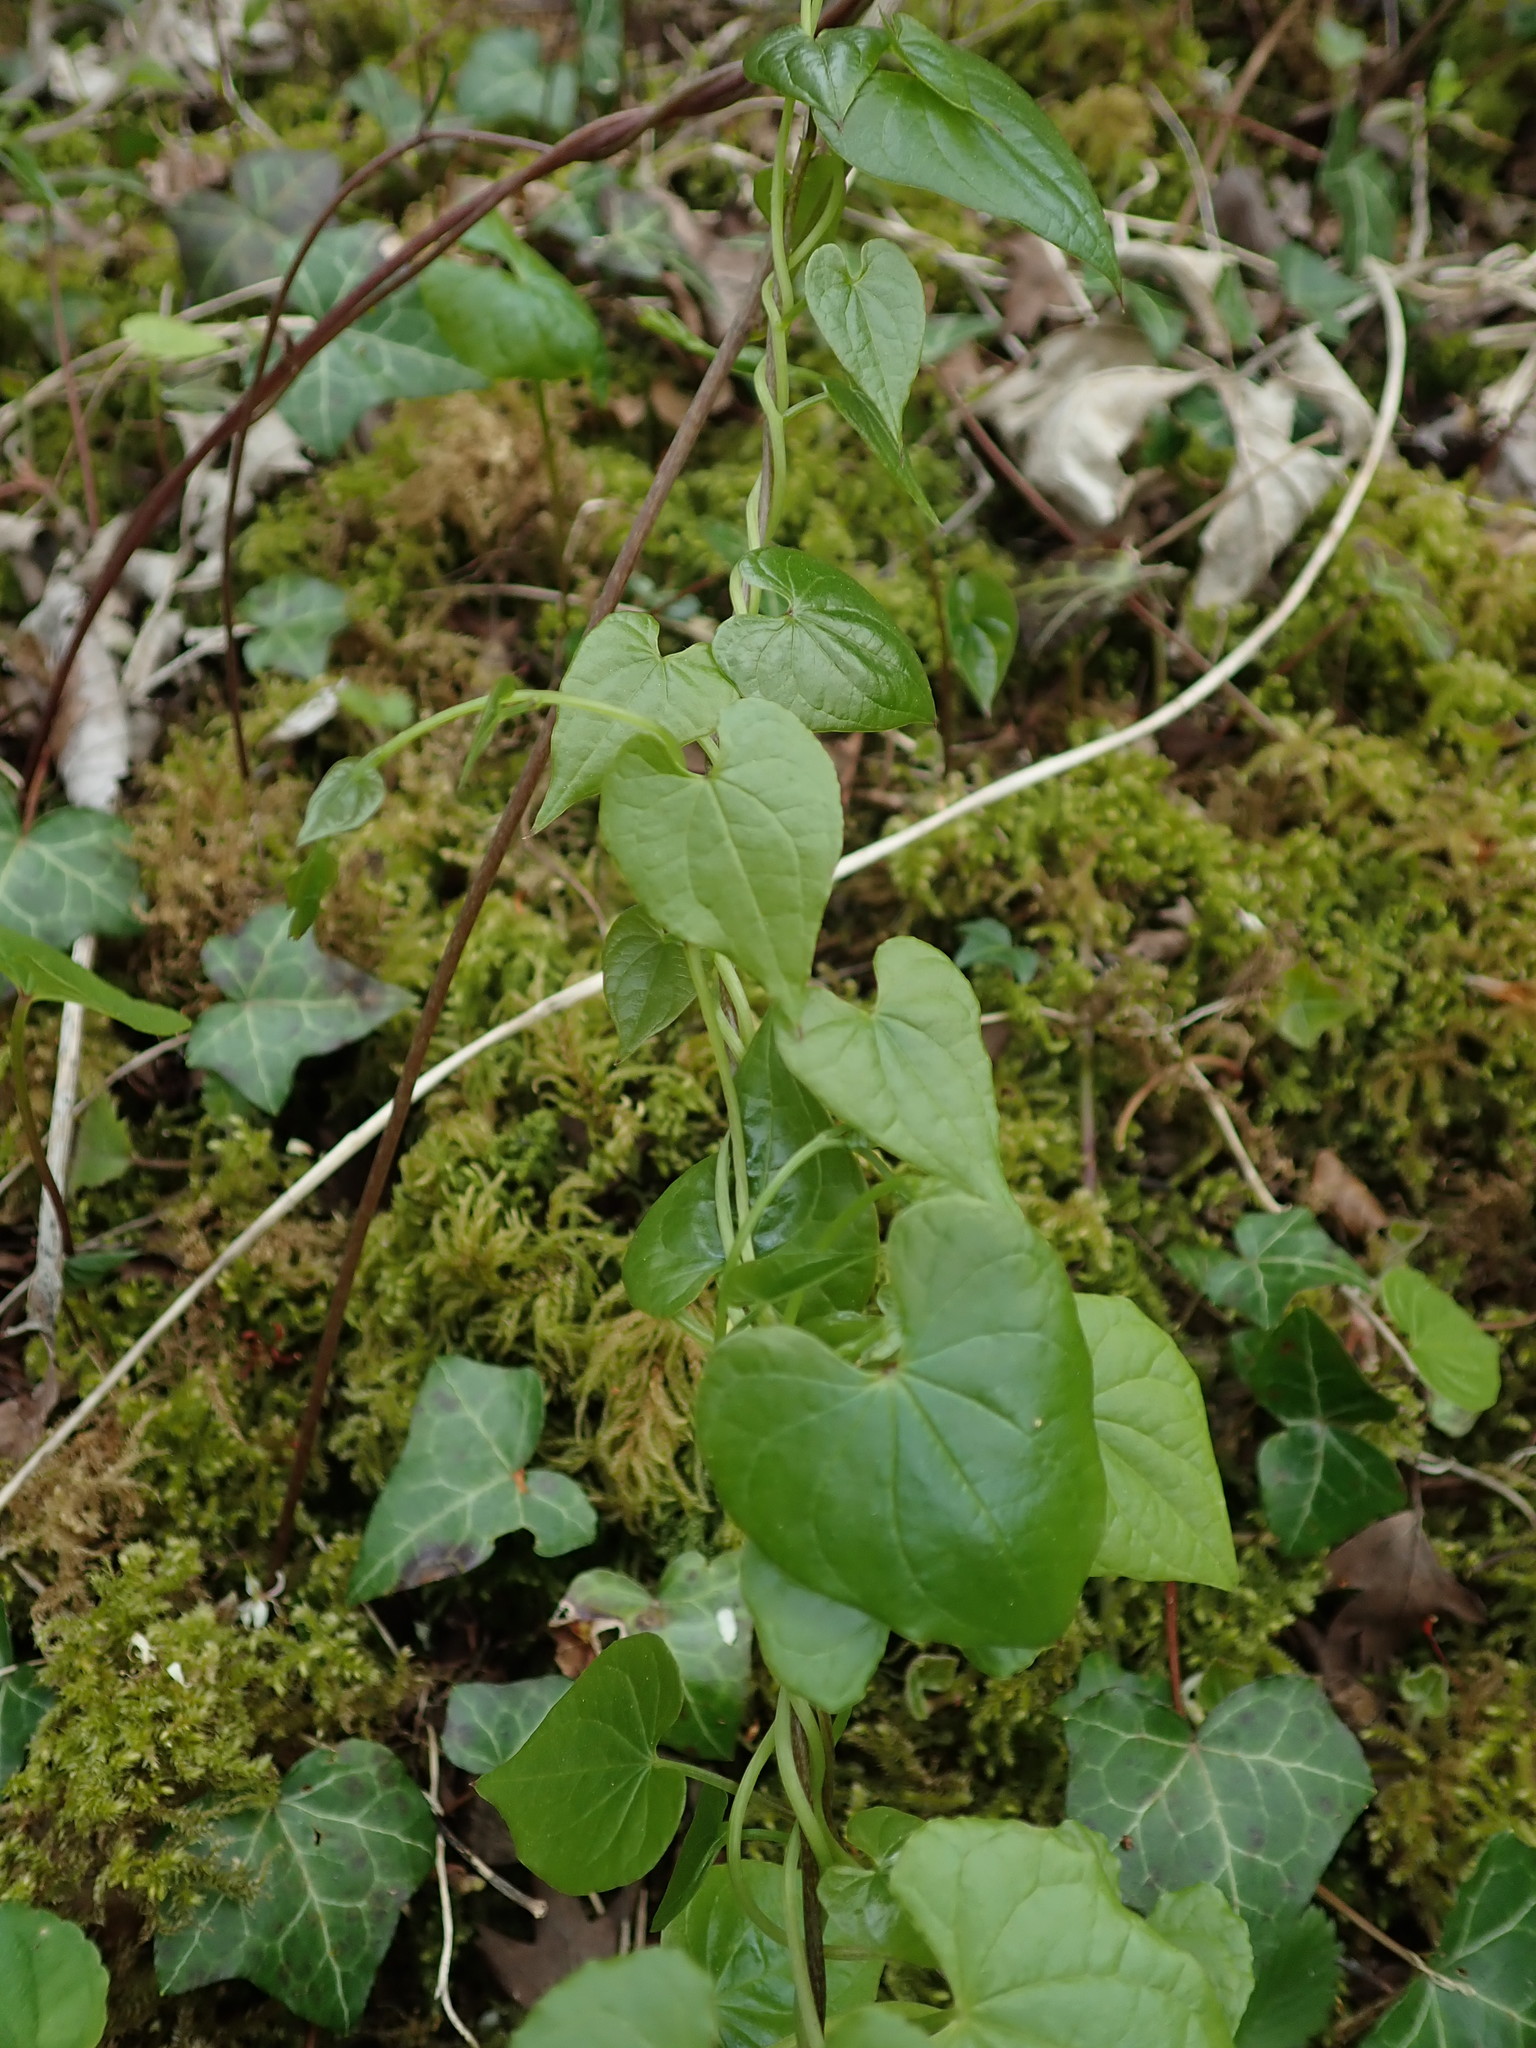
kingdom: Plantae
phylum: Tracheophyta
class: Liliopsida
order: Dioscoreales
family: Dioscoreaceae
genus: Dioscorea
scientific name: Dioscorea communis
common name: Black-bindweed
